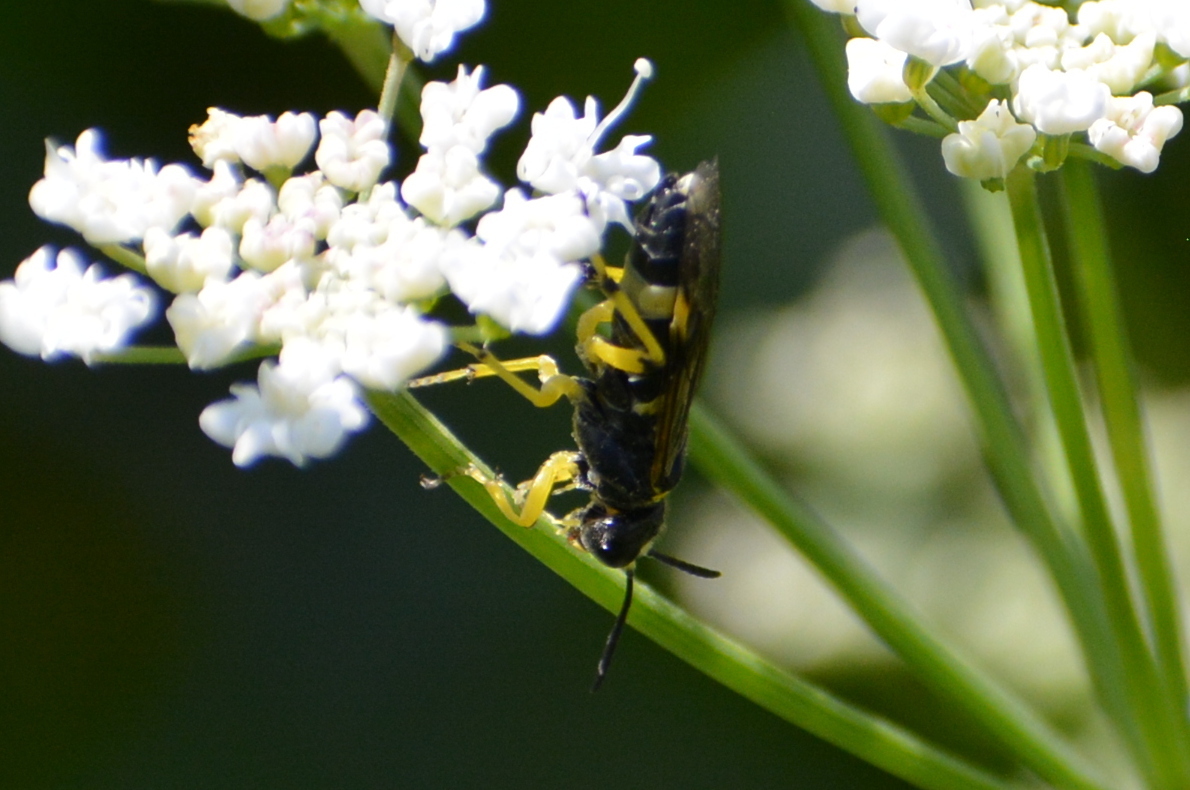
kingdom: Animalia
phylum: Arthropoda
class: Insecta
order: Hymenoptera
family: Tenthredinidae
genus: Tenthredo
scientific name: Tenthredo zonula
